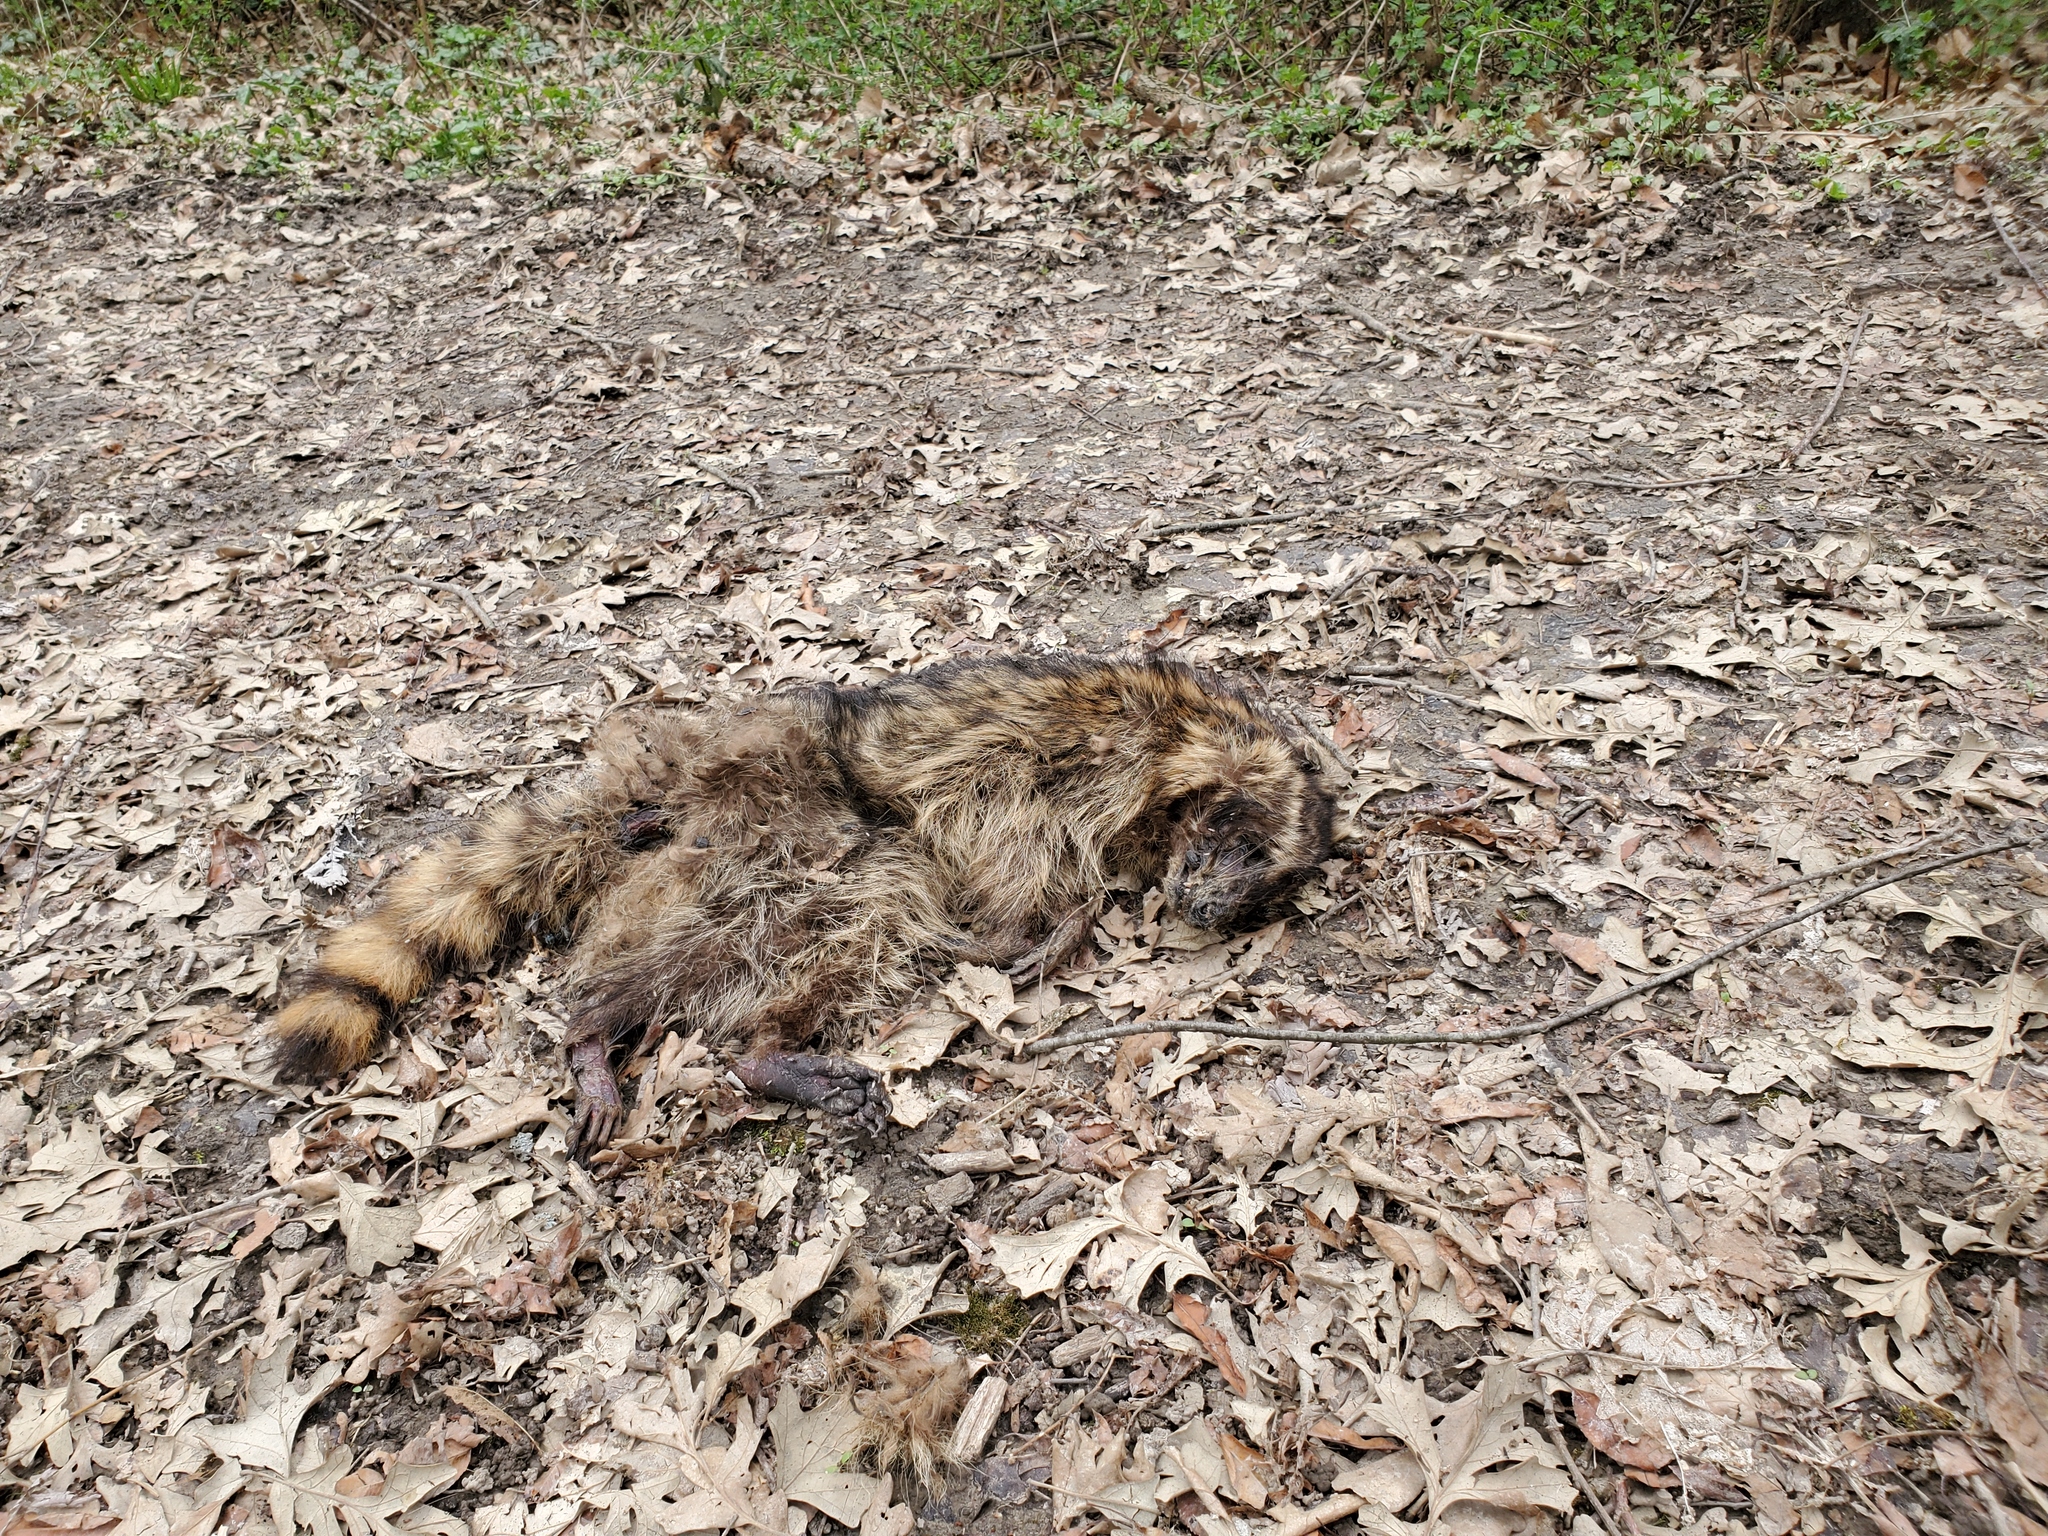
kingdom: Animalia
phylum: Chordata
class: Mammalia
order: Carnivora
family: Procyonidae
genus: Procyon
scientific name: Procyon lotor
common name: Raccoon
